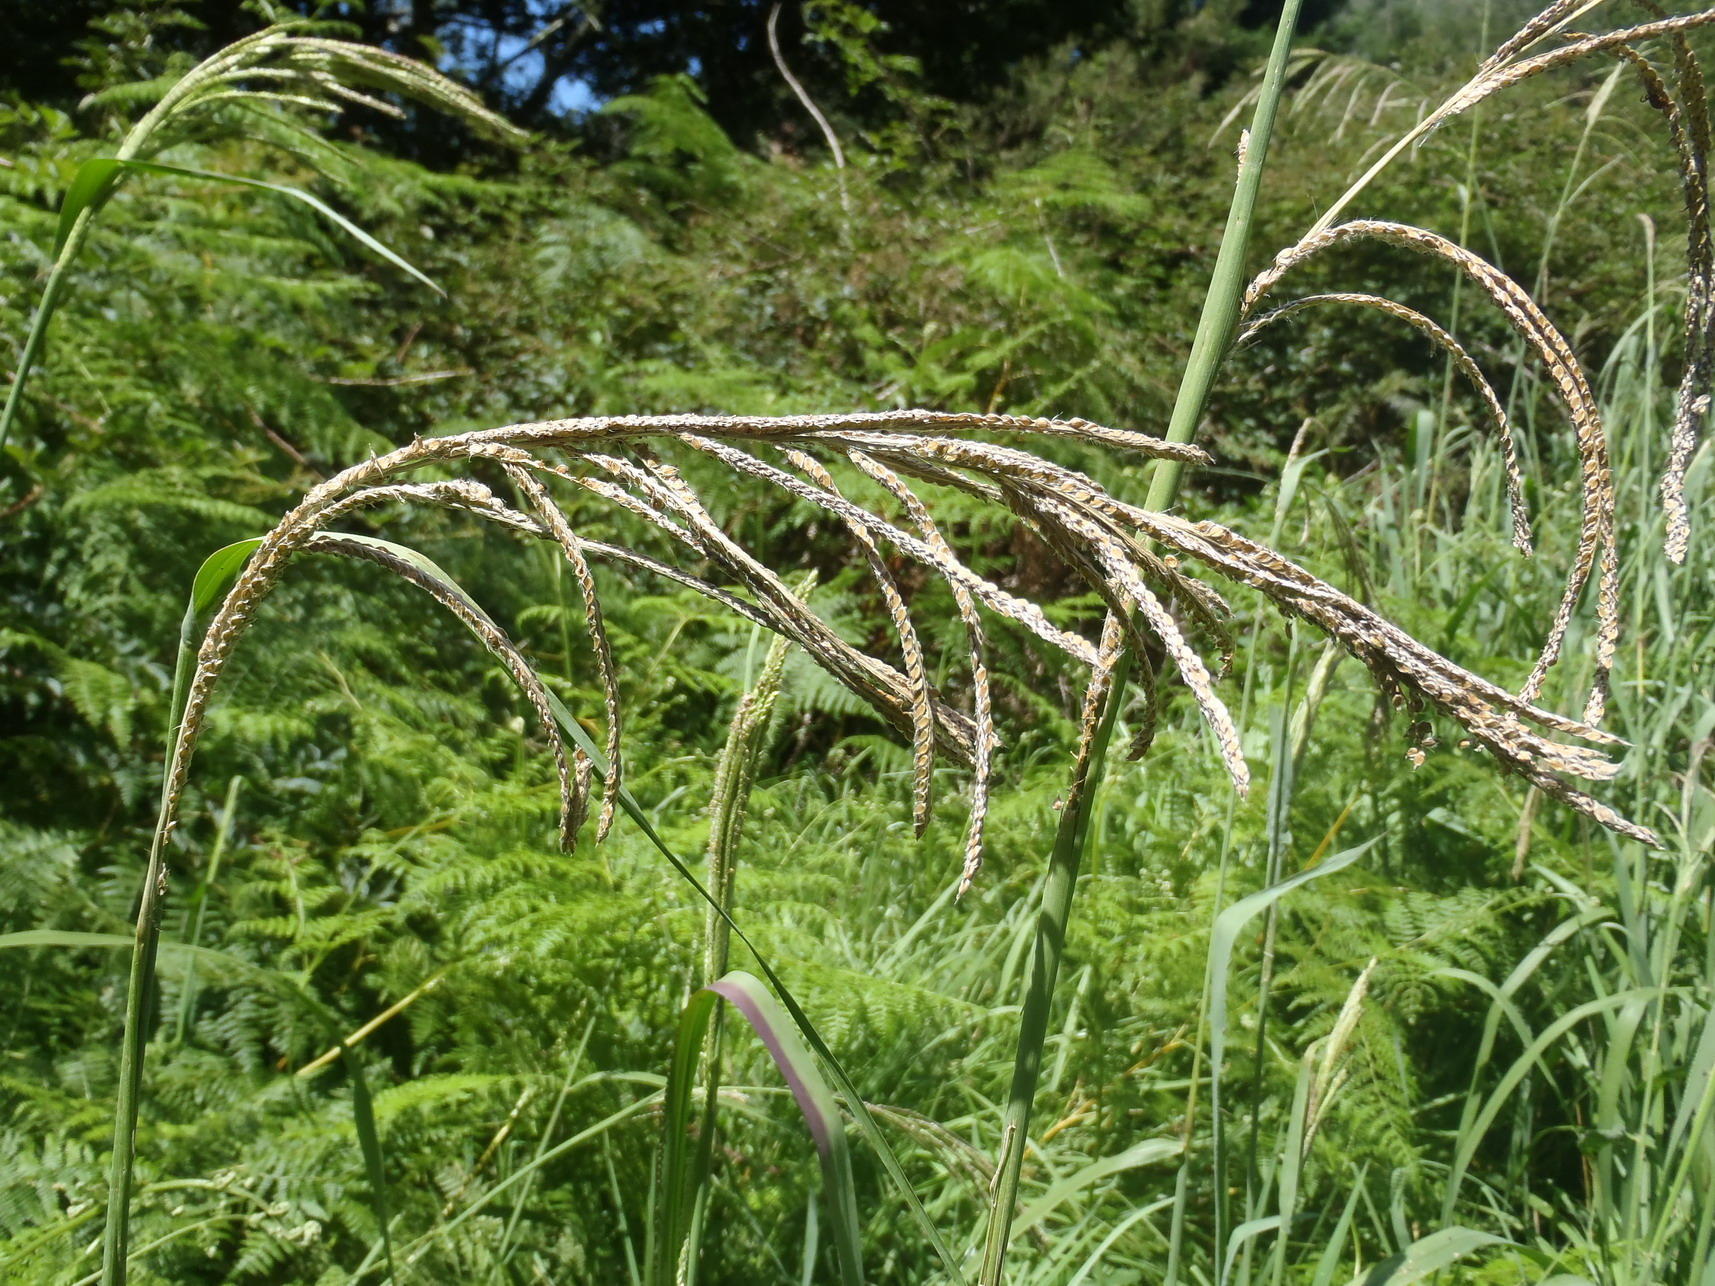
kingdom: Plantae
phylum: Tracheophyta
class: Liliopsida
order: Poales
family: Poaceae
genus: Paspalum
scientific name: Paspalum urvillei
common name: Vasey's grass
